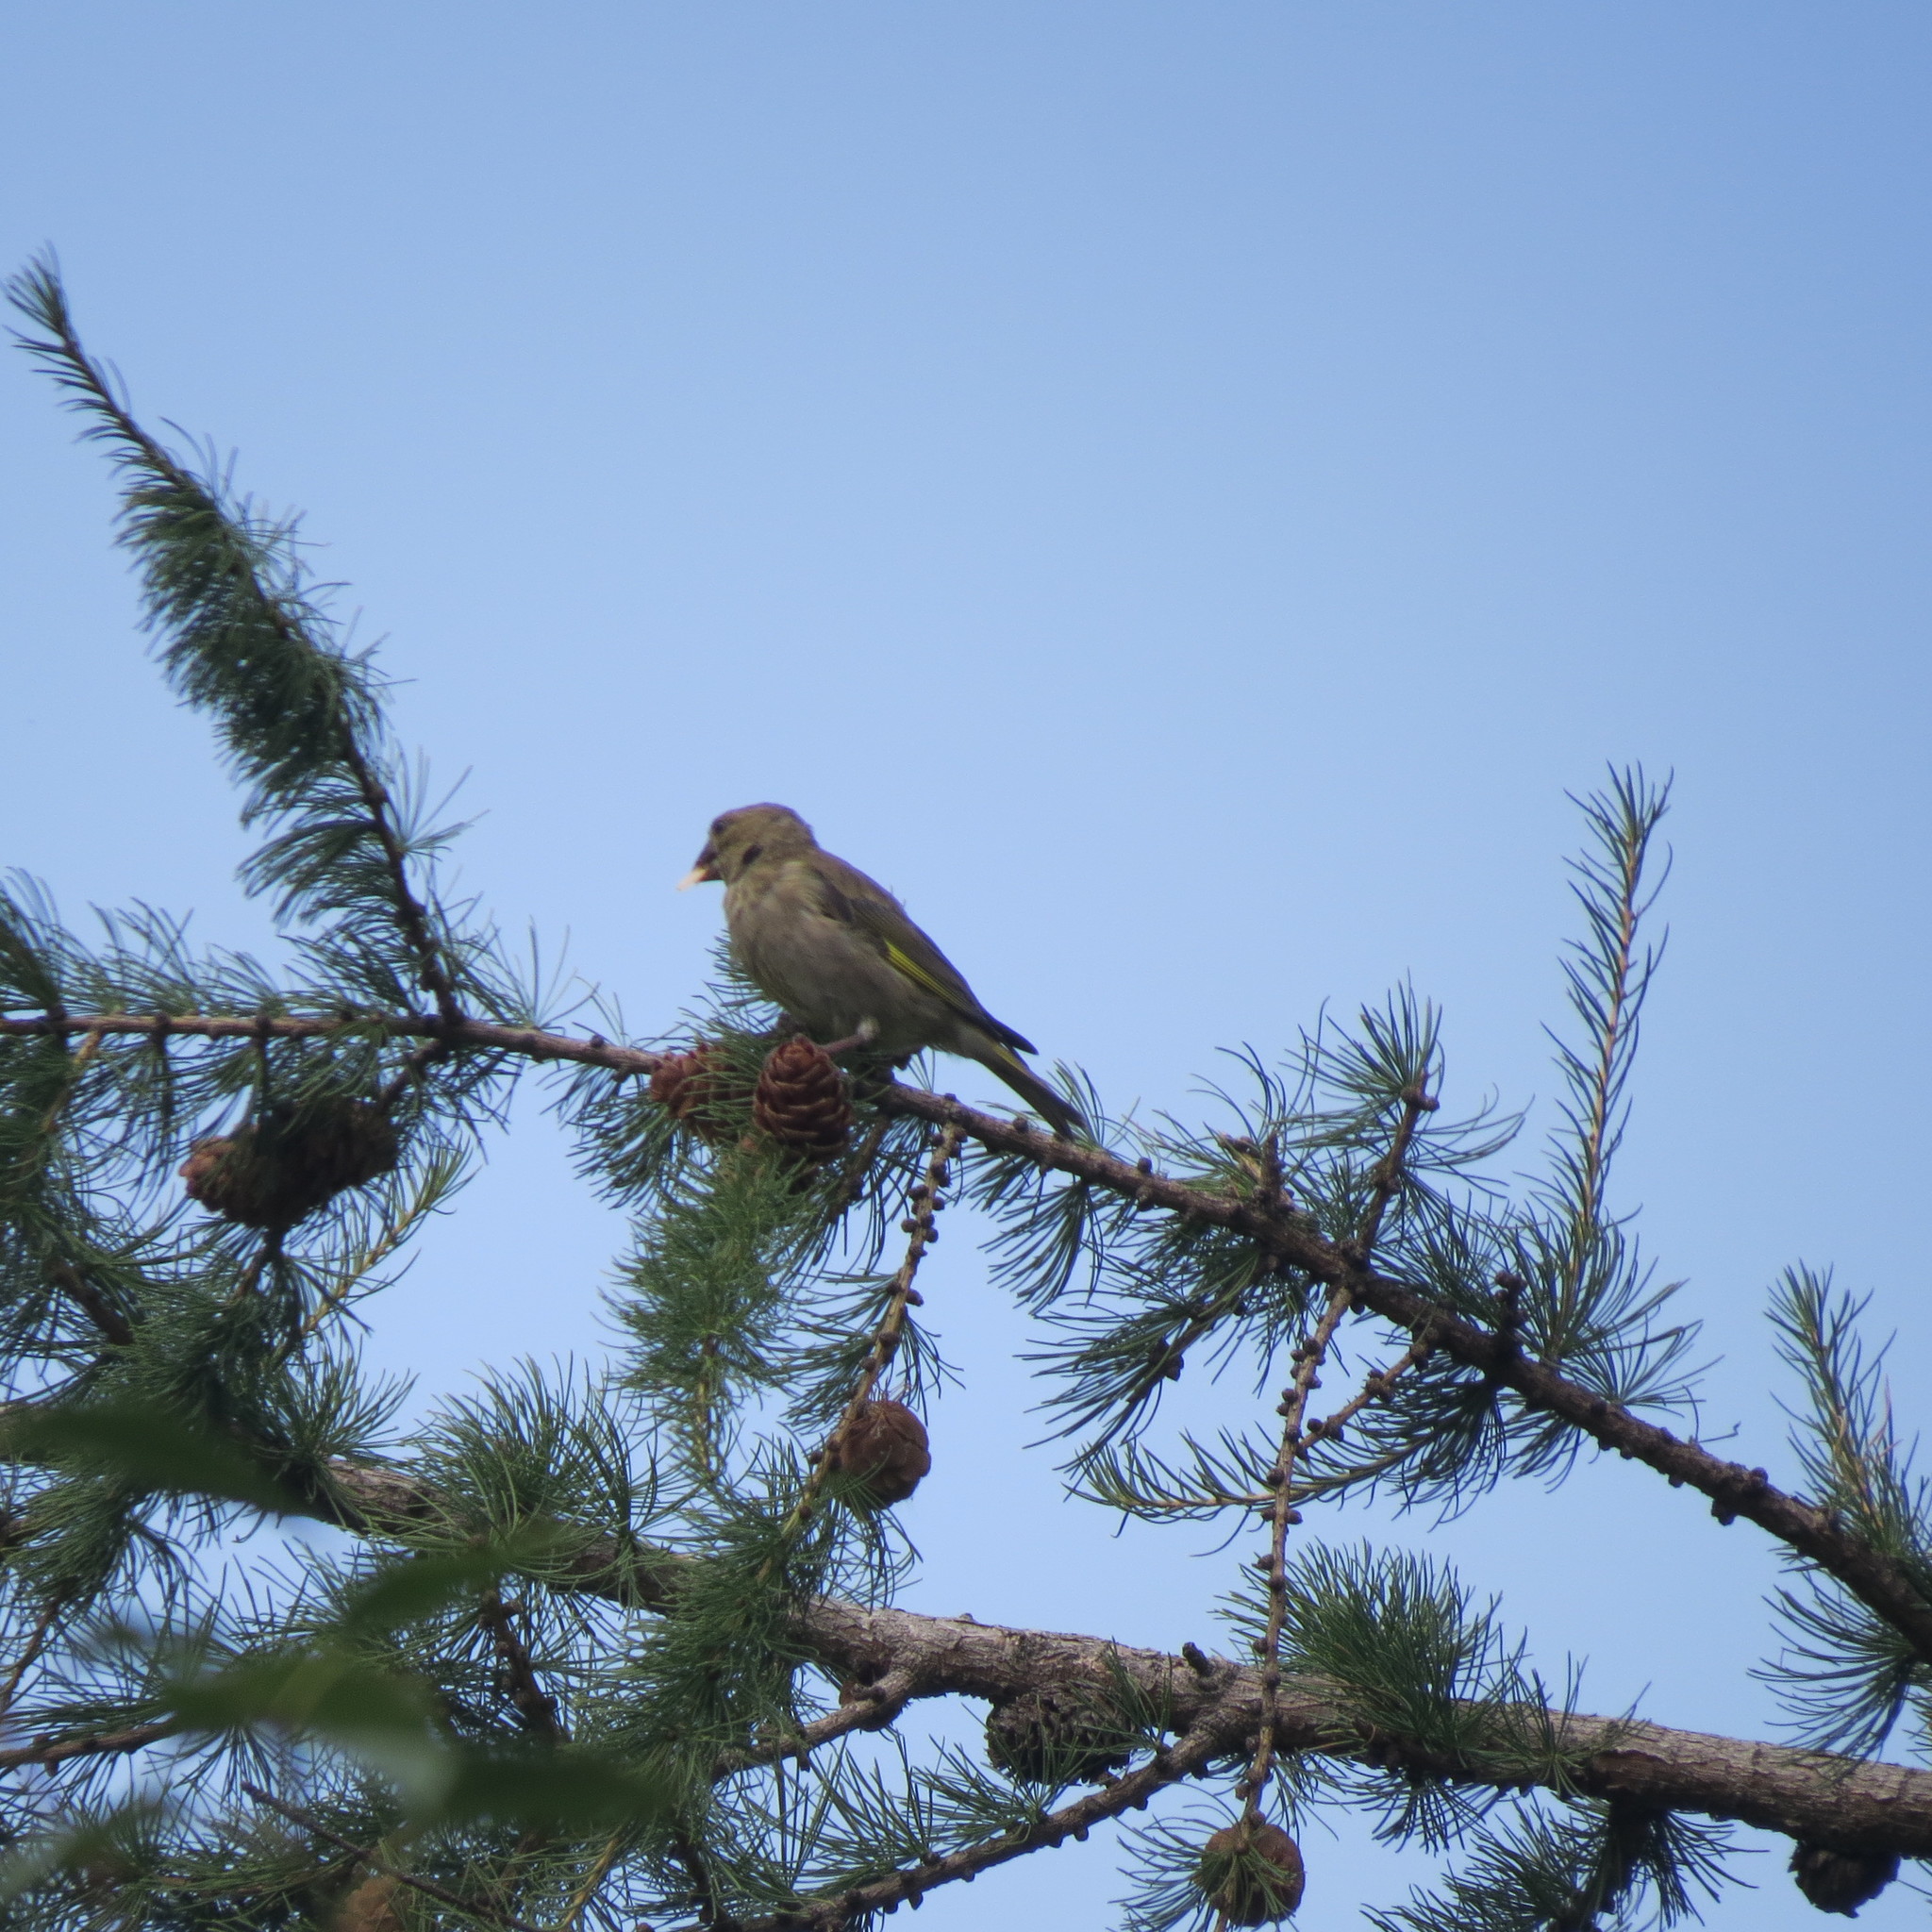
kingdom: Plantae
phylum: Tracheophyta
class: Liliopsida
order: Poales
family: Poaceae
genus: Chloris
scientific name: Chloris chloris
